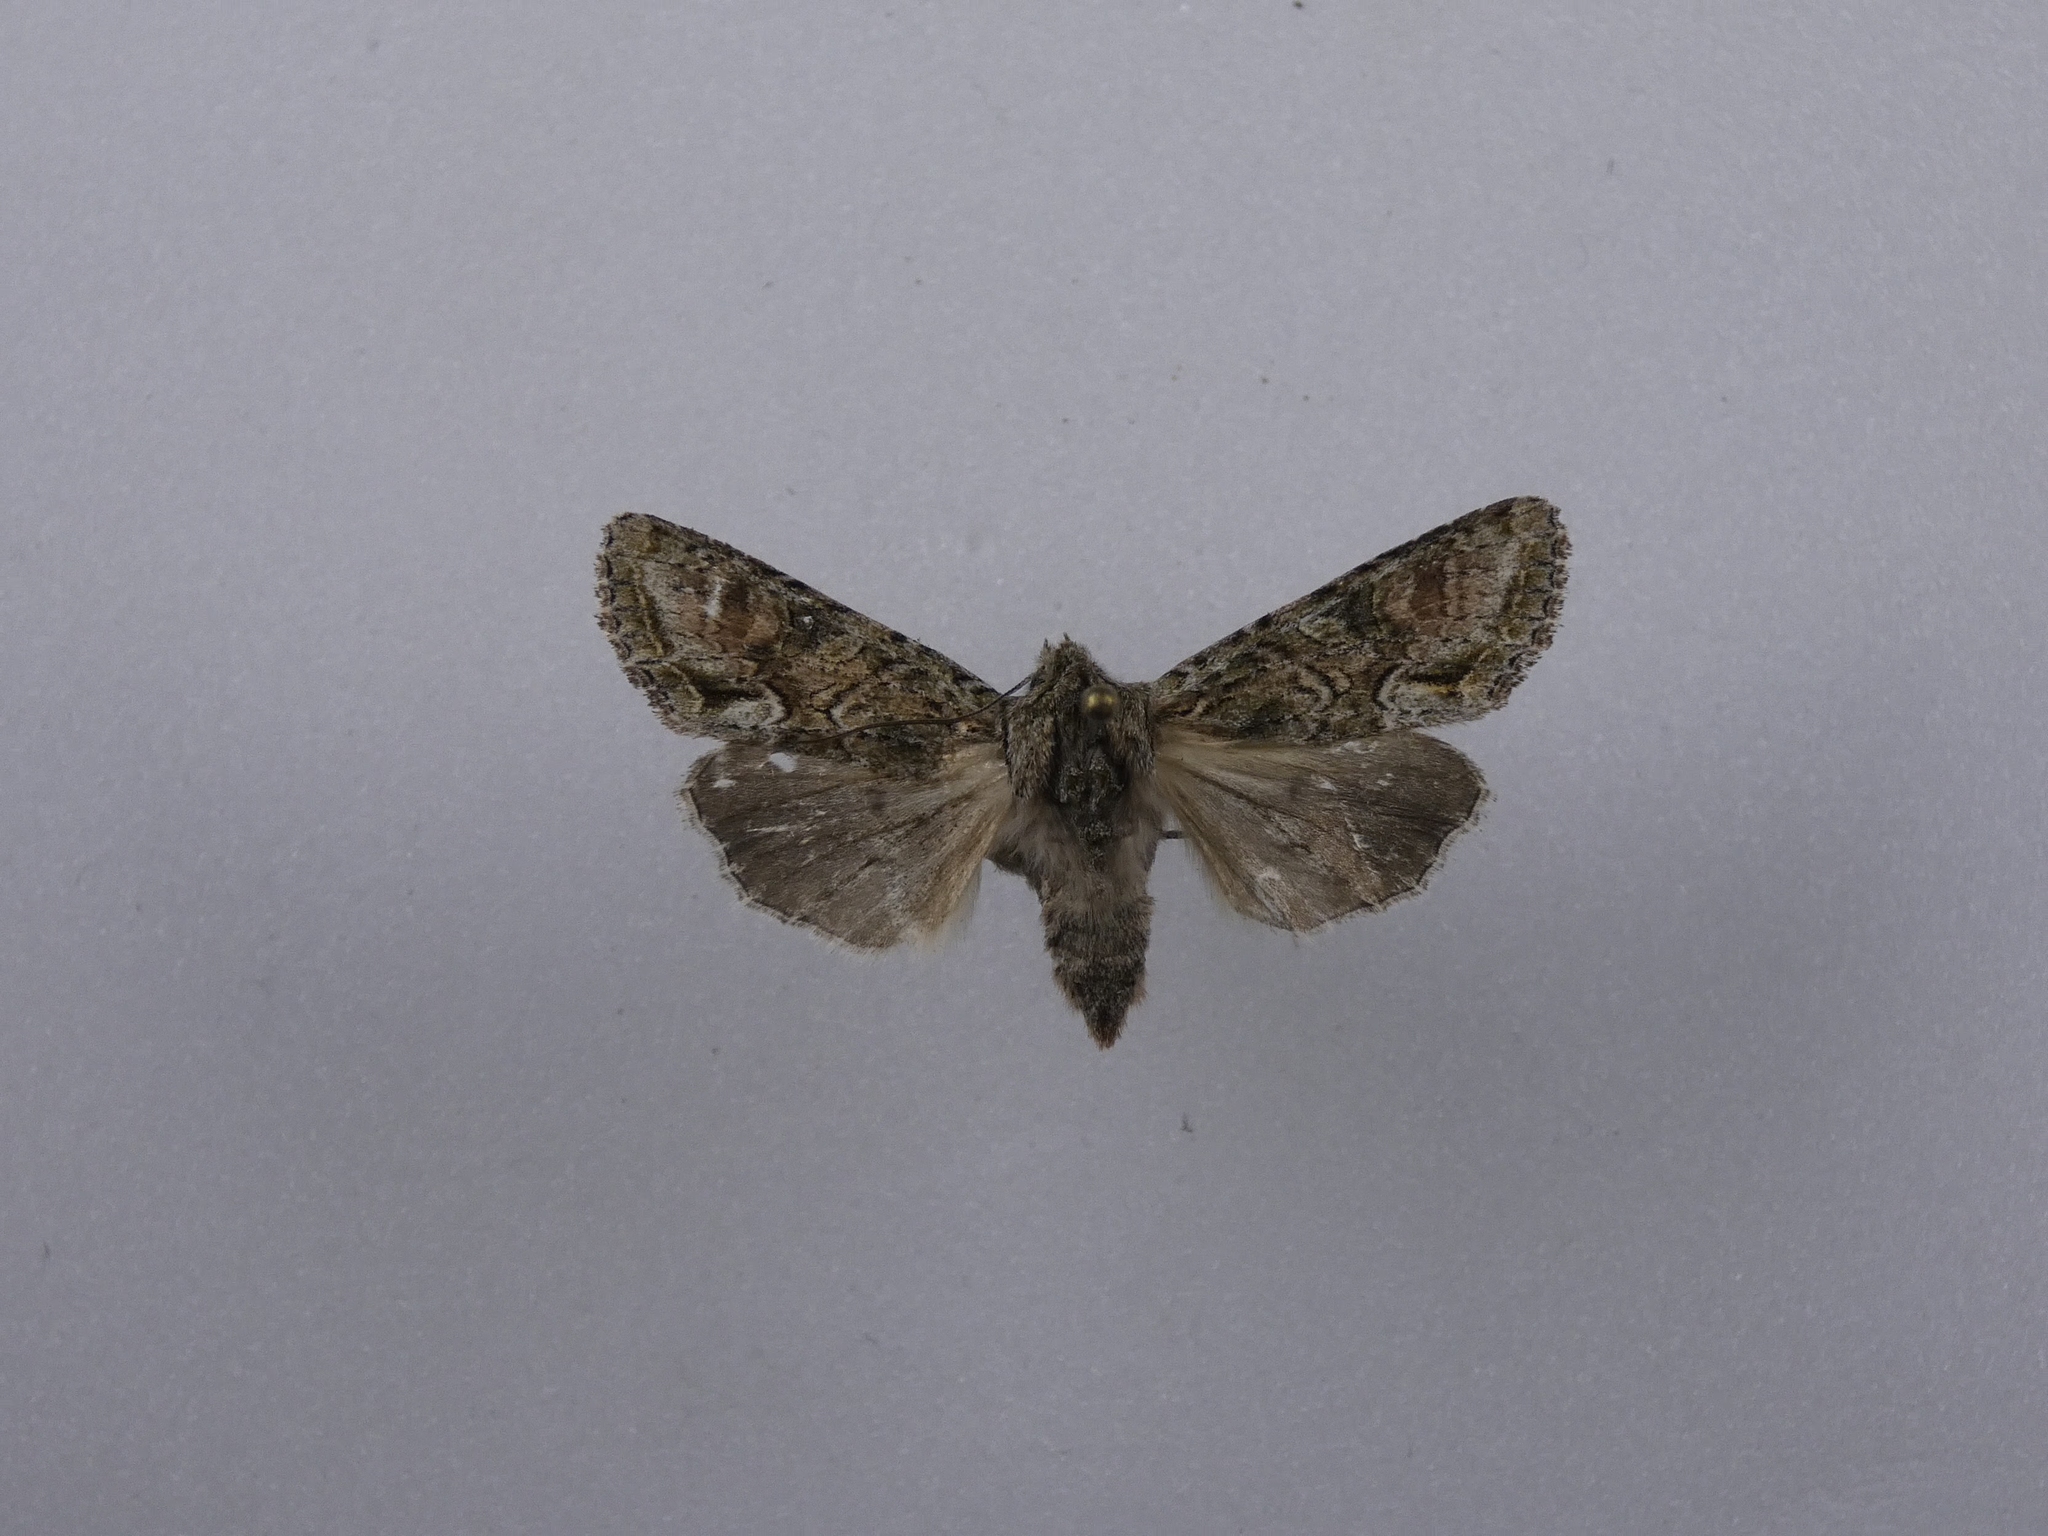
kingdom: Animalia
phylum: Arthropoda
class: Insecta
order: Lepidoptera
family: Noctuidae
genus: Ichneutica
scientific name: Ichneutica mutans
